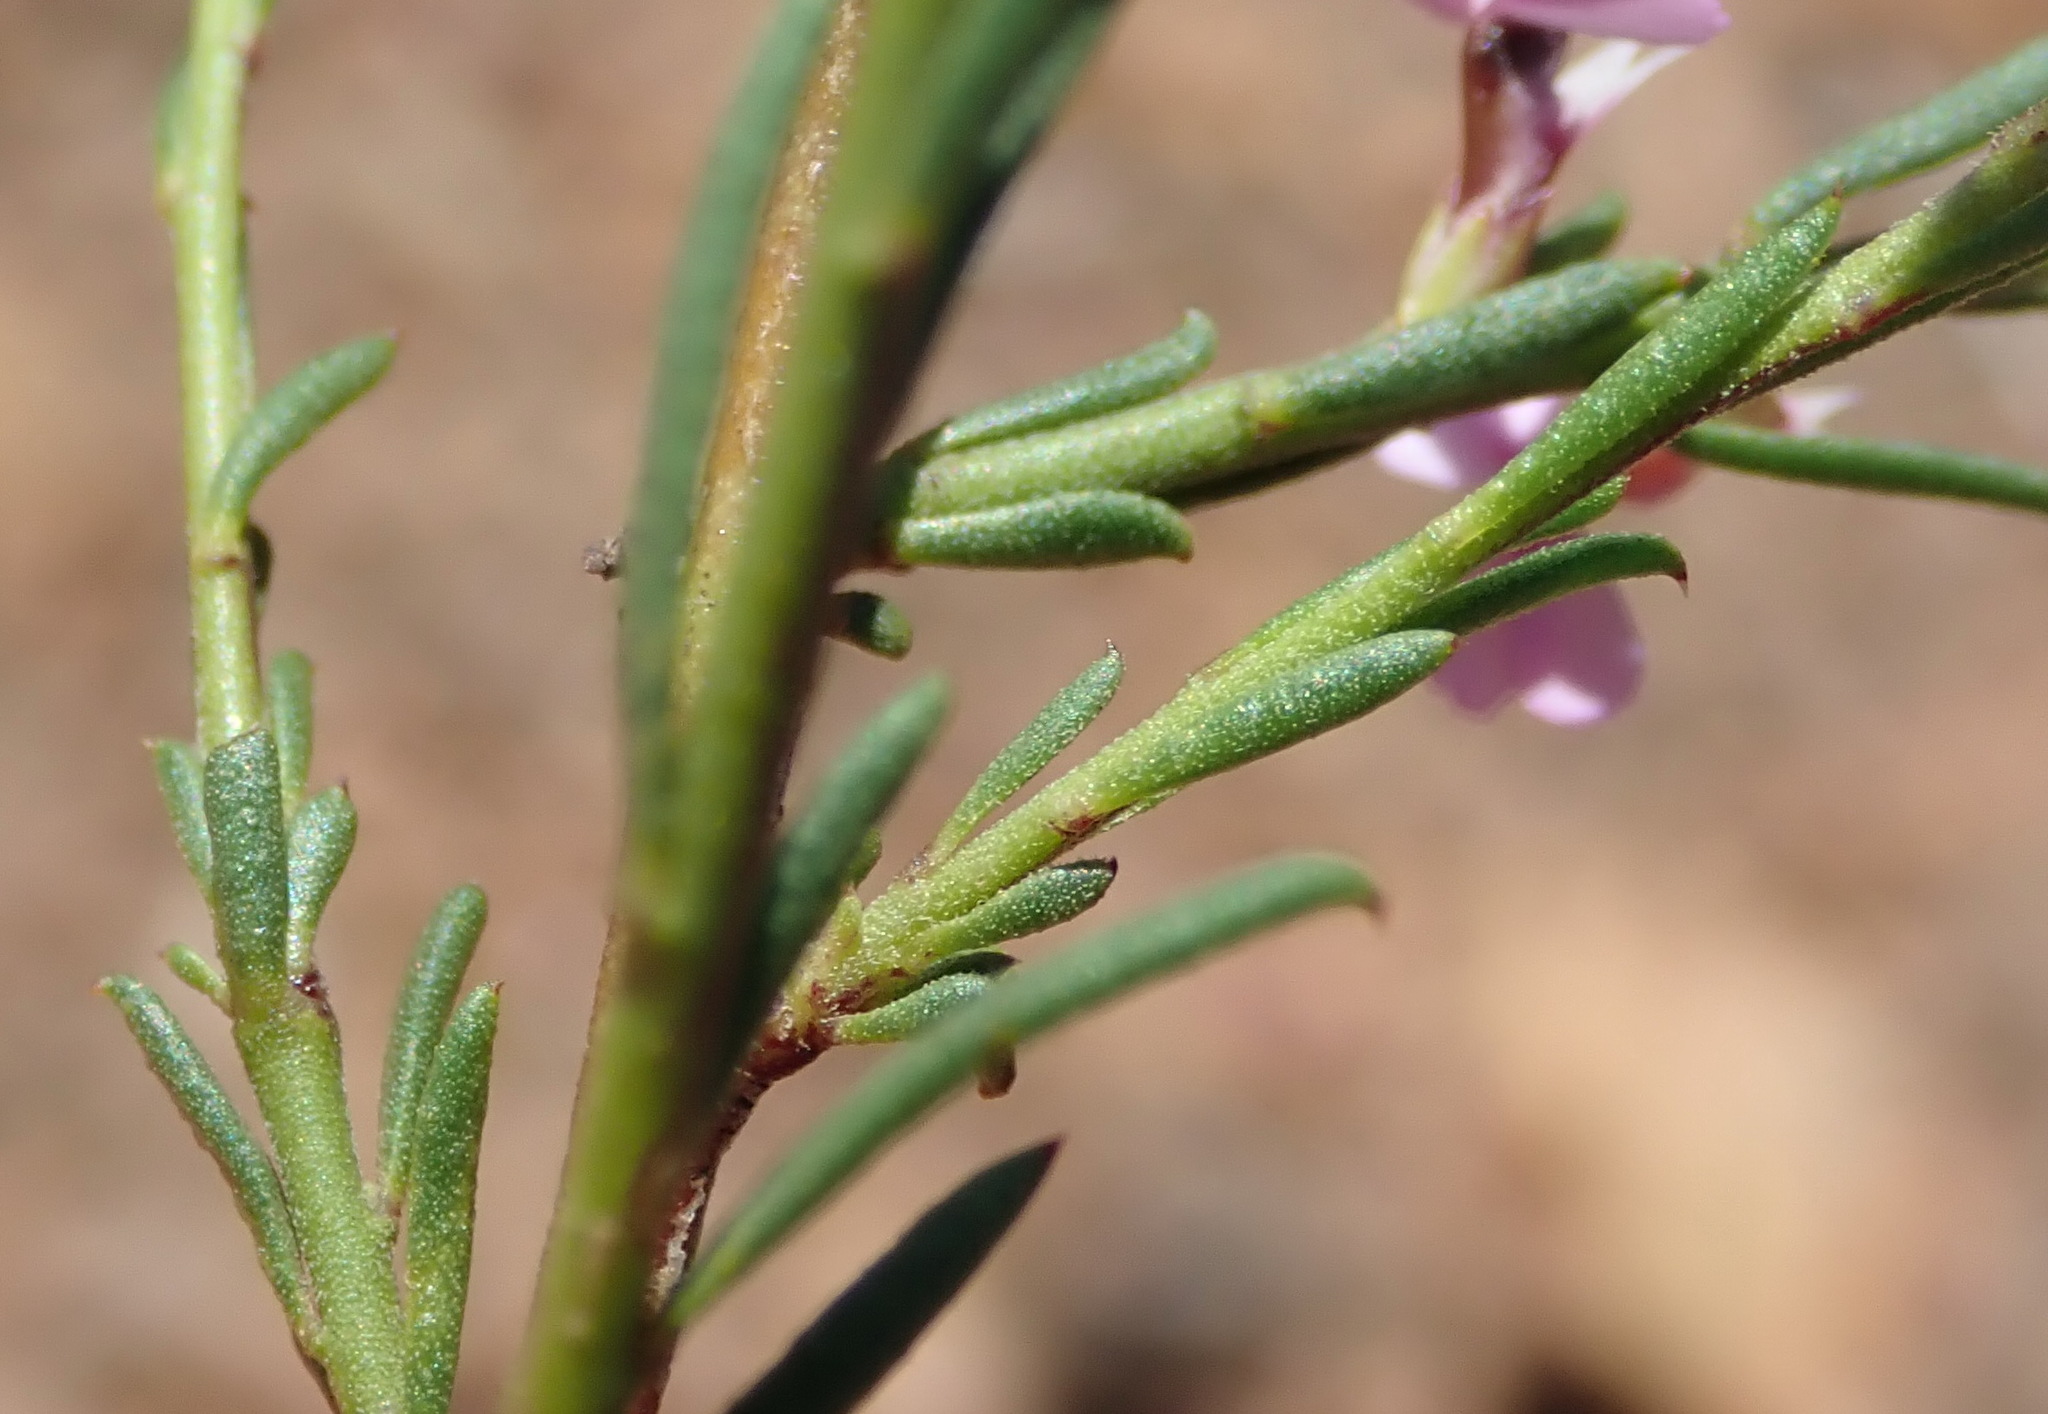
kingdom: Plantae
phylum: Tracheophyta
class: Magnoliopsida
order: Fabales
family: Polygalaceae
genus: Muraltia
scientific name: Muraltia dispersa
